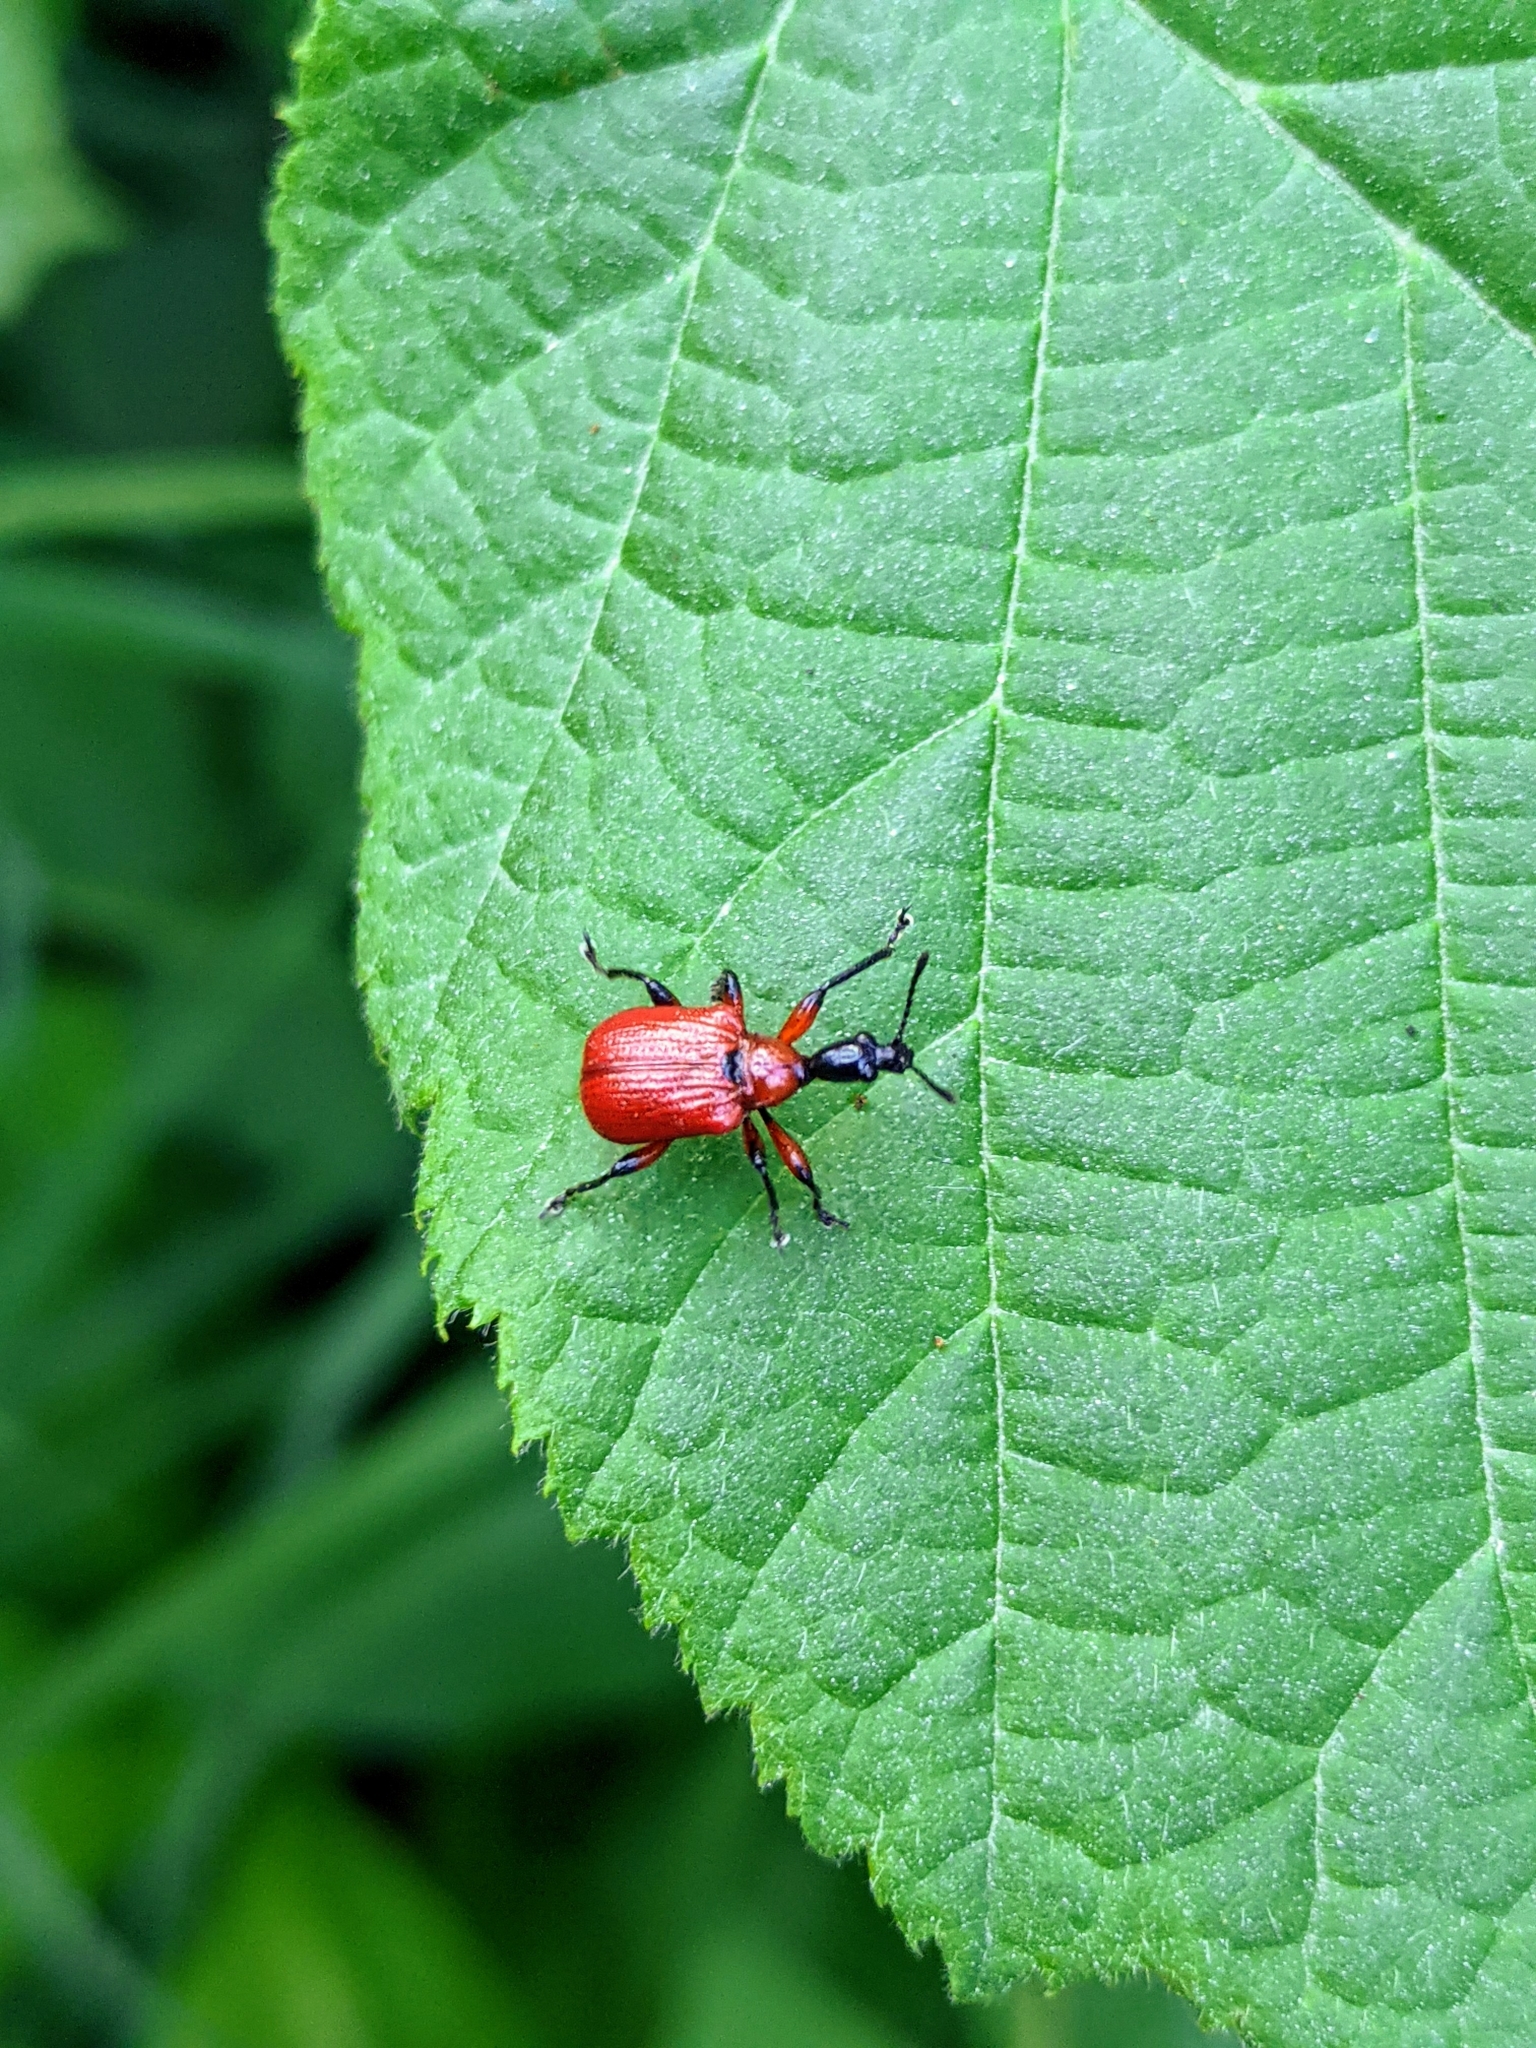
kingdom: Animalia
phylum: Arthropoda
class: Insecta
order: Coleoptera
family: Attelabidae
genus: Apoderus
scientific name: Apoderus coryli
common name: Hazel leaf roller
